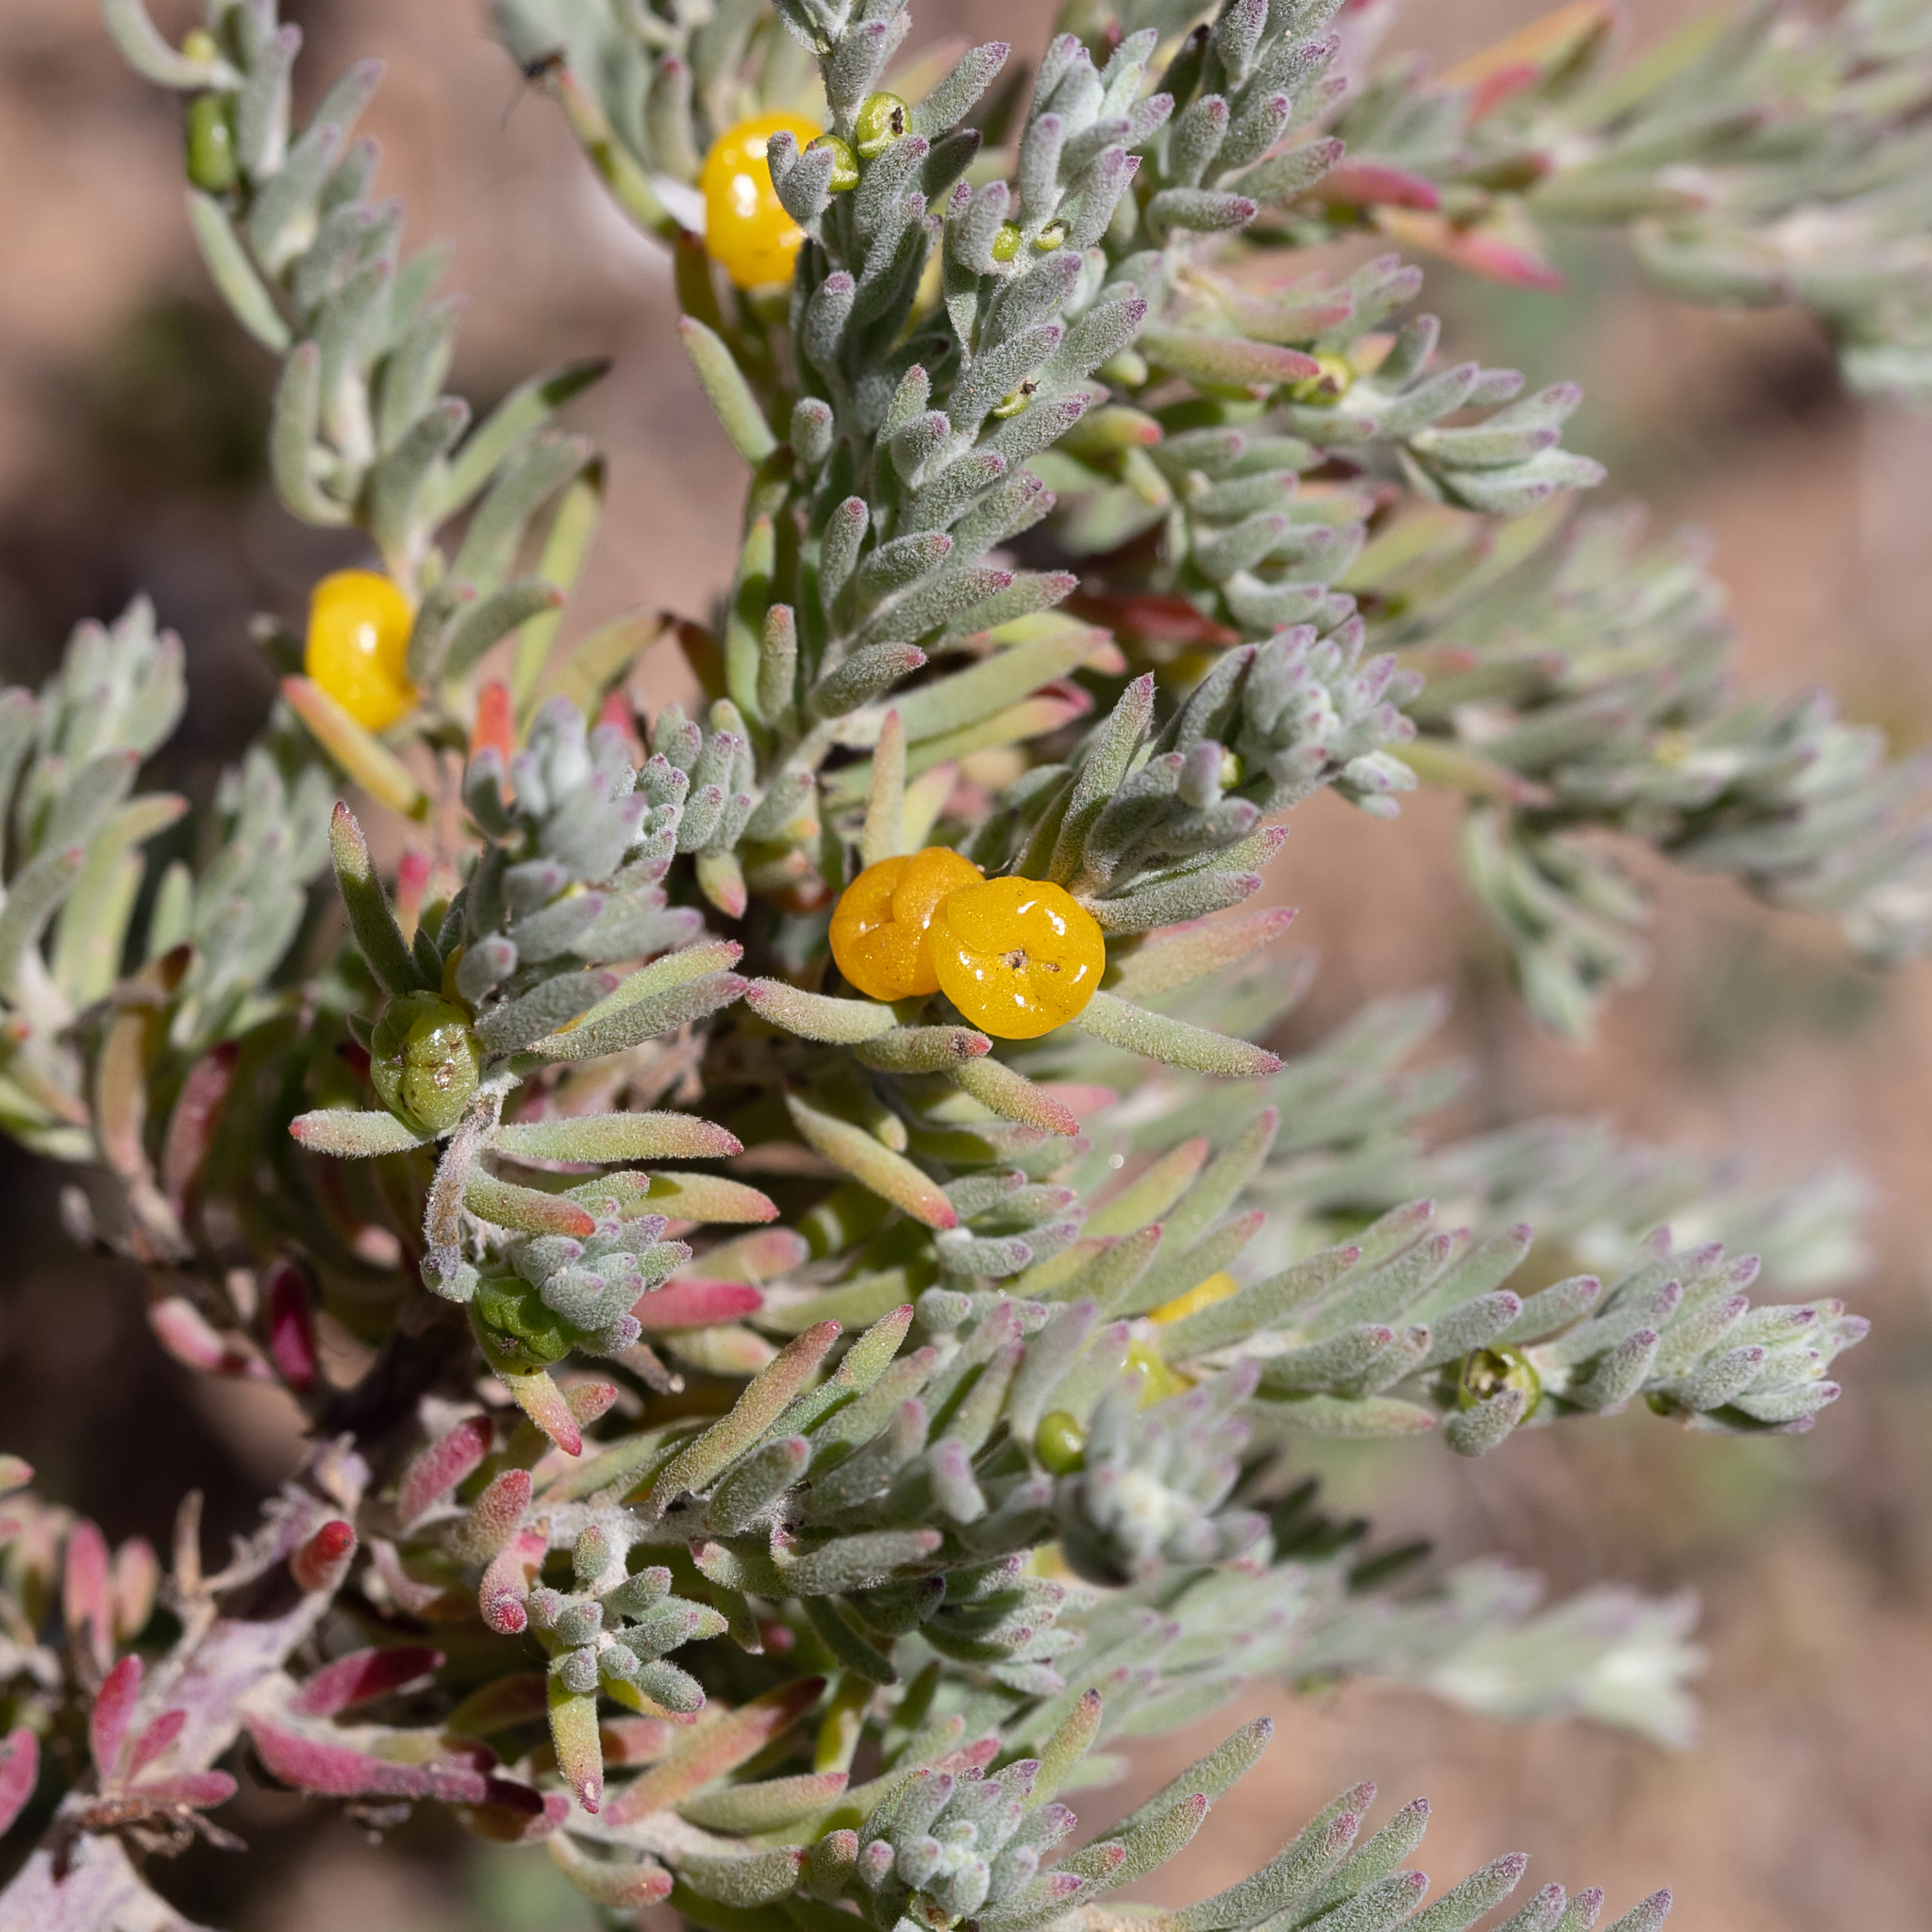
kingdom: Plantae
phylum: Tracheophyta
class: Magnoliopsida
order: Caryophyllales
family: Amaranthaceae
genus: Enchylaena
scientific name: Enchylaena tomentosa
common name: Ruby saltbush
